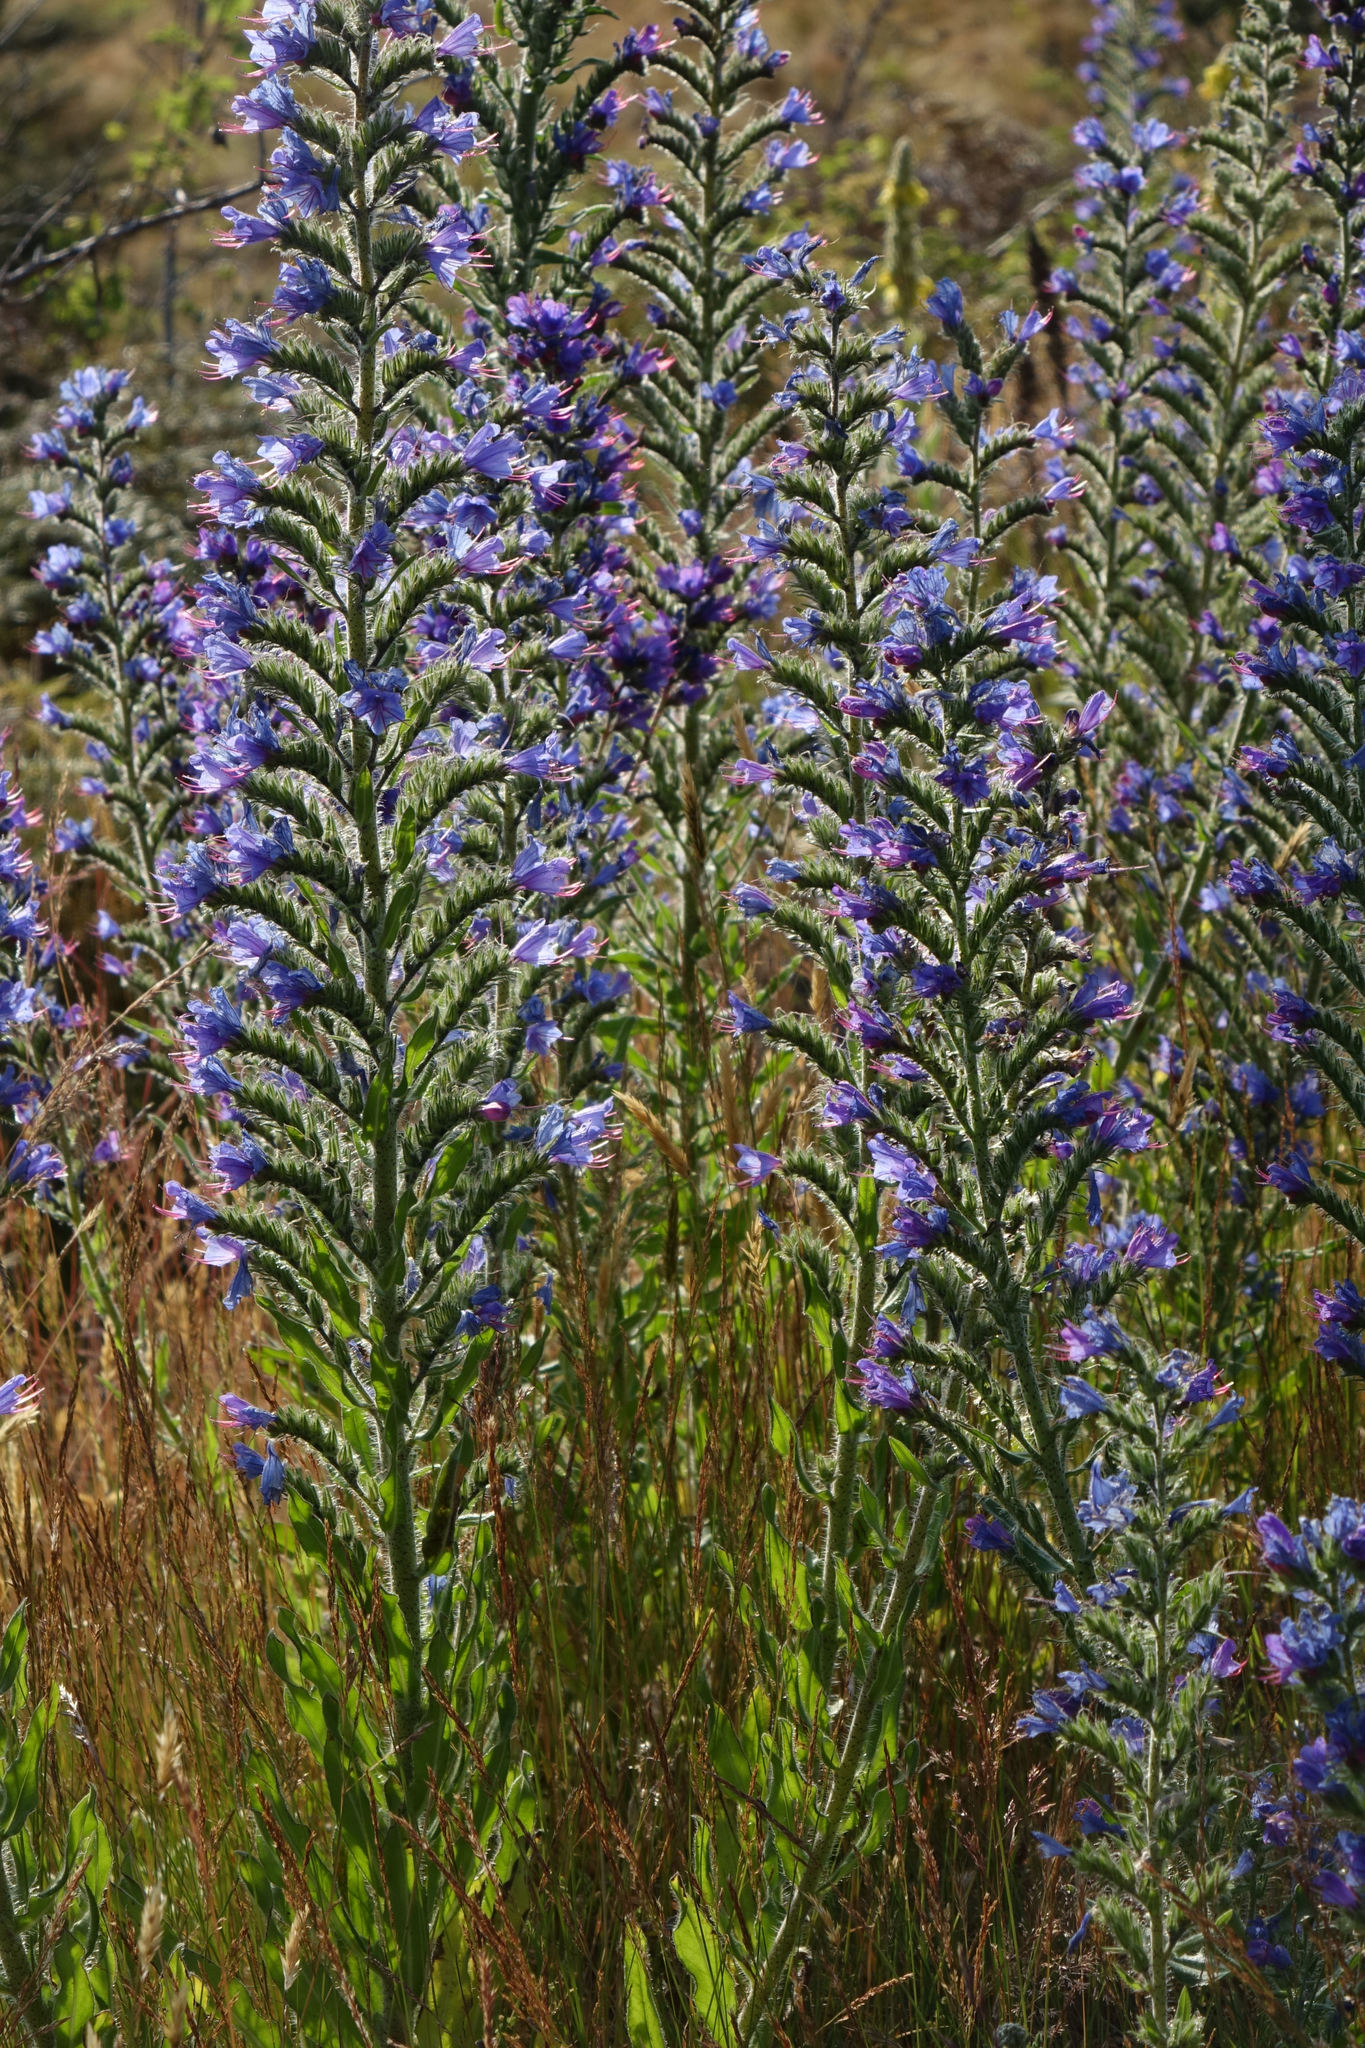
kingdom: Plantae
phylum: Tracheophyta
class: Magnoliopsida
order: Boraginales
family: Boraginaceae
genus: Echium
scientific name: Echium vulgare
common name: Common viper's bugloss
